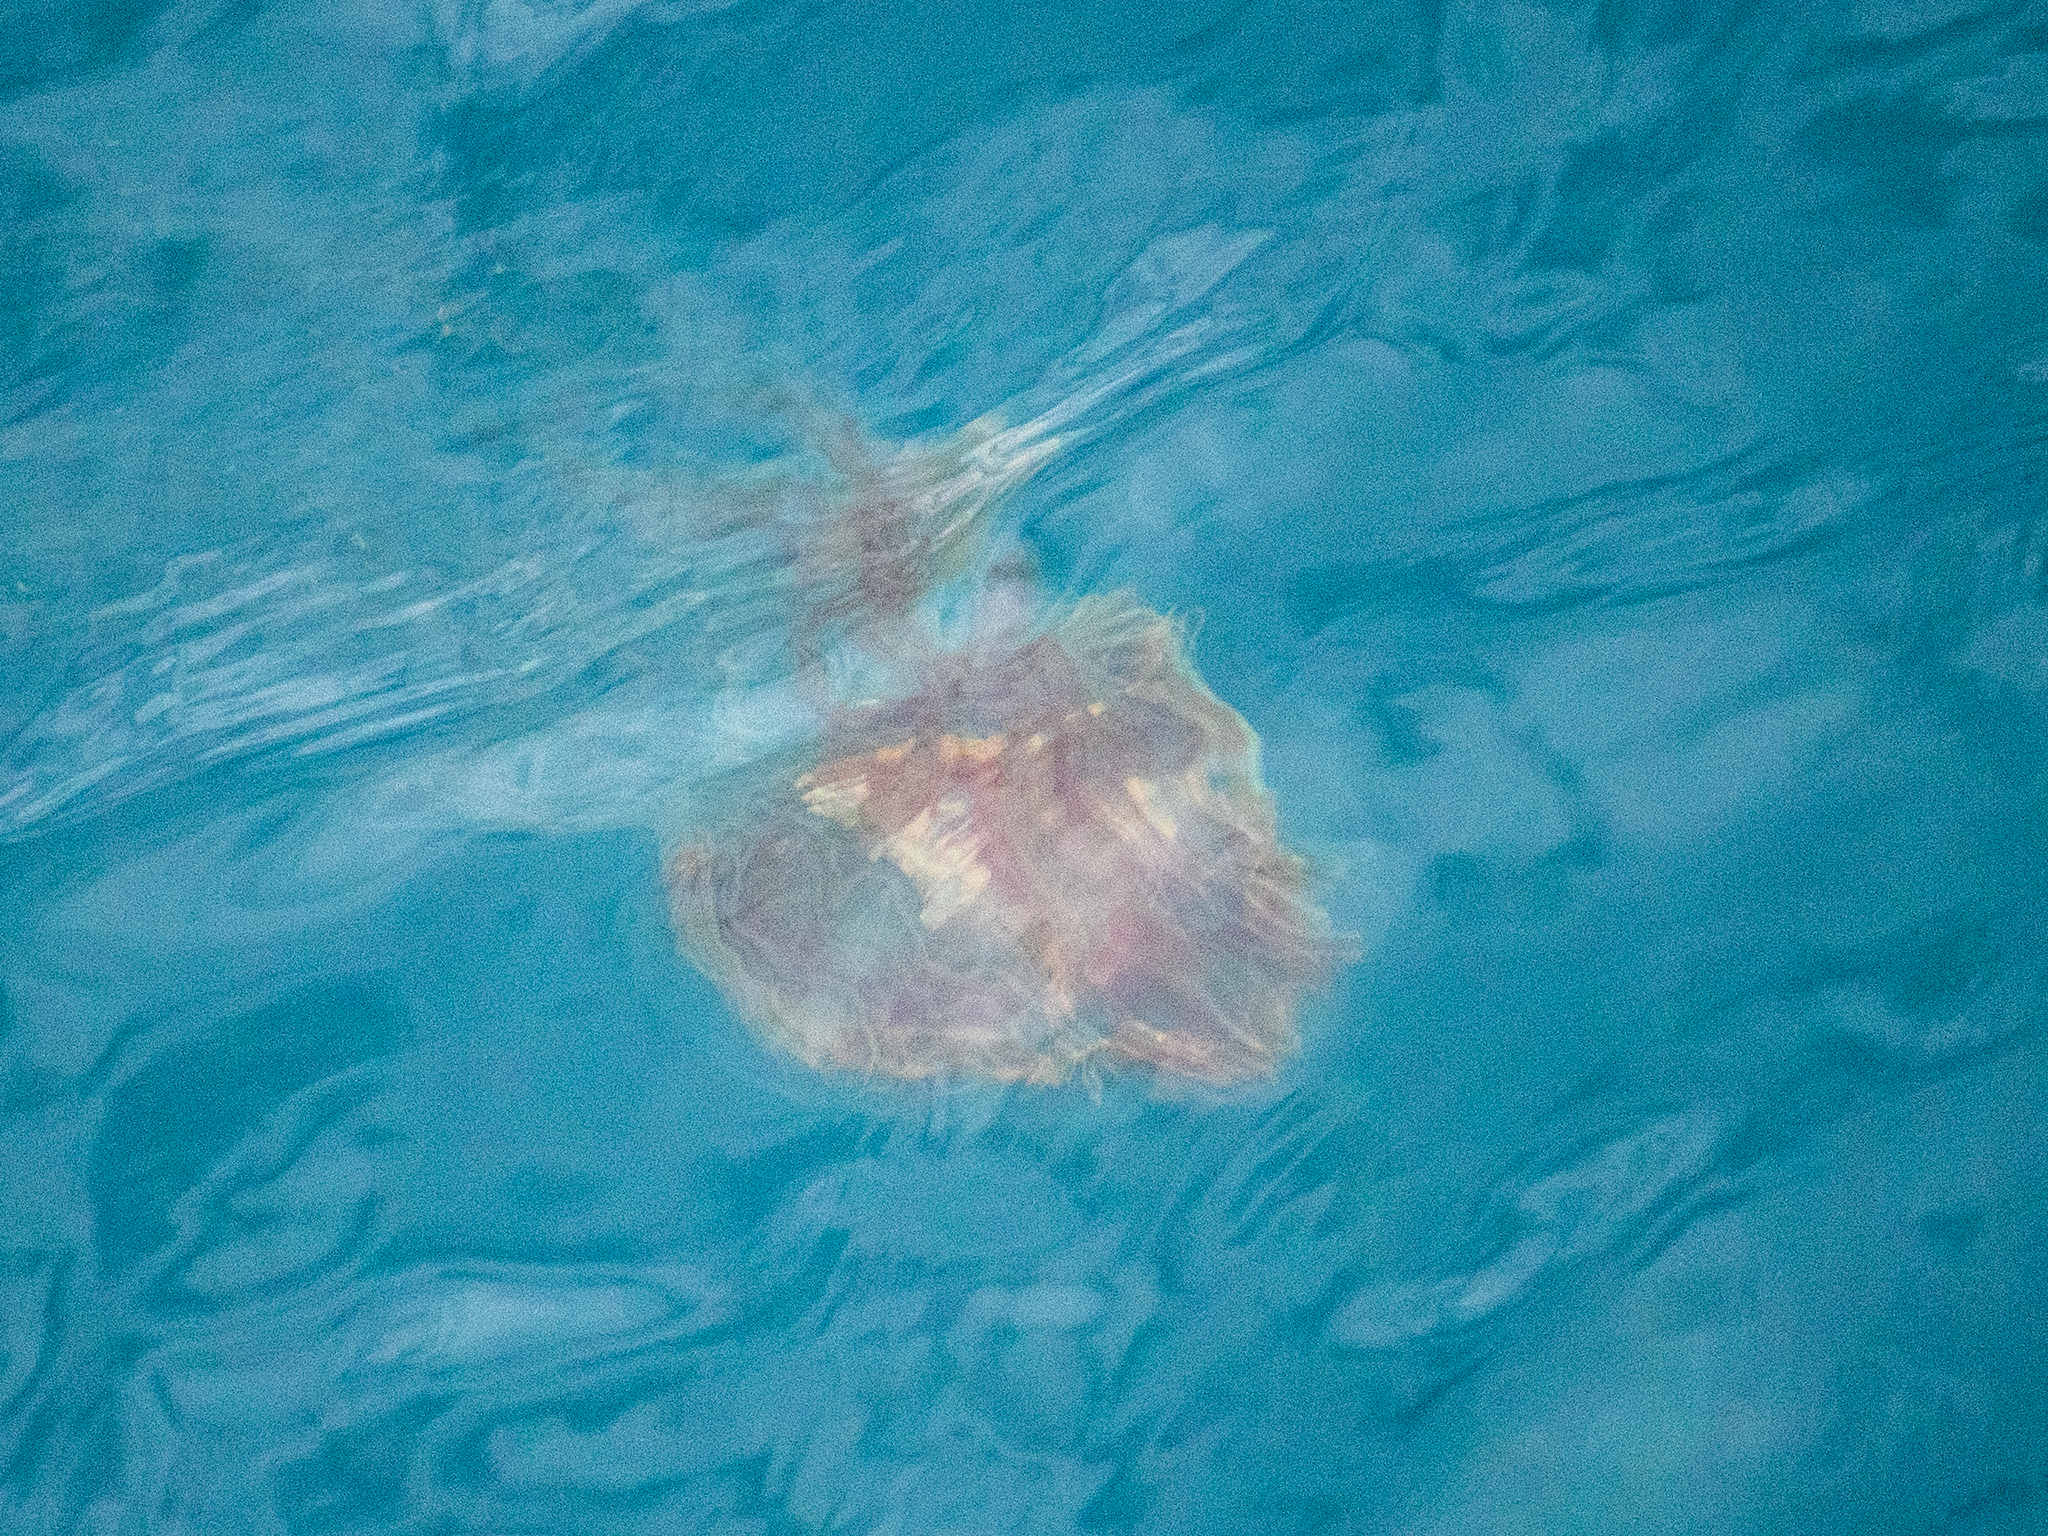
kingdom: Animalia
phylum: Cnidaria
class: Scyphozoa
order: Semaeostomeae
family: Cyaneidae
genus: Desmonema
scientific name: Desmonema gaudichaudi
